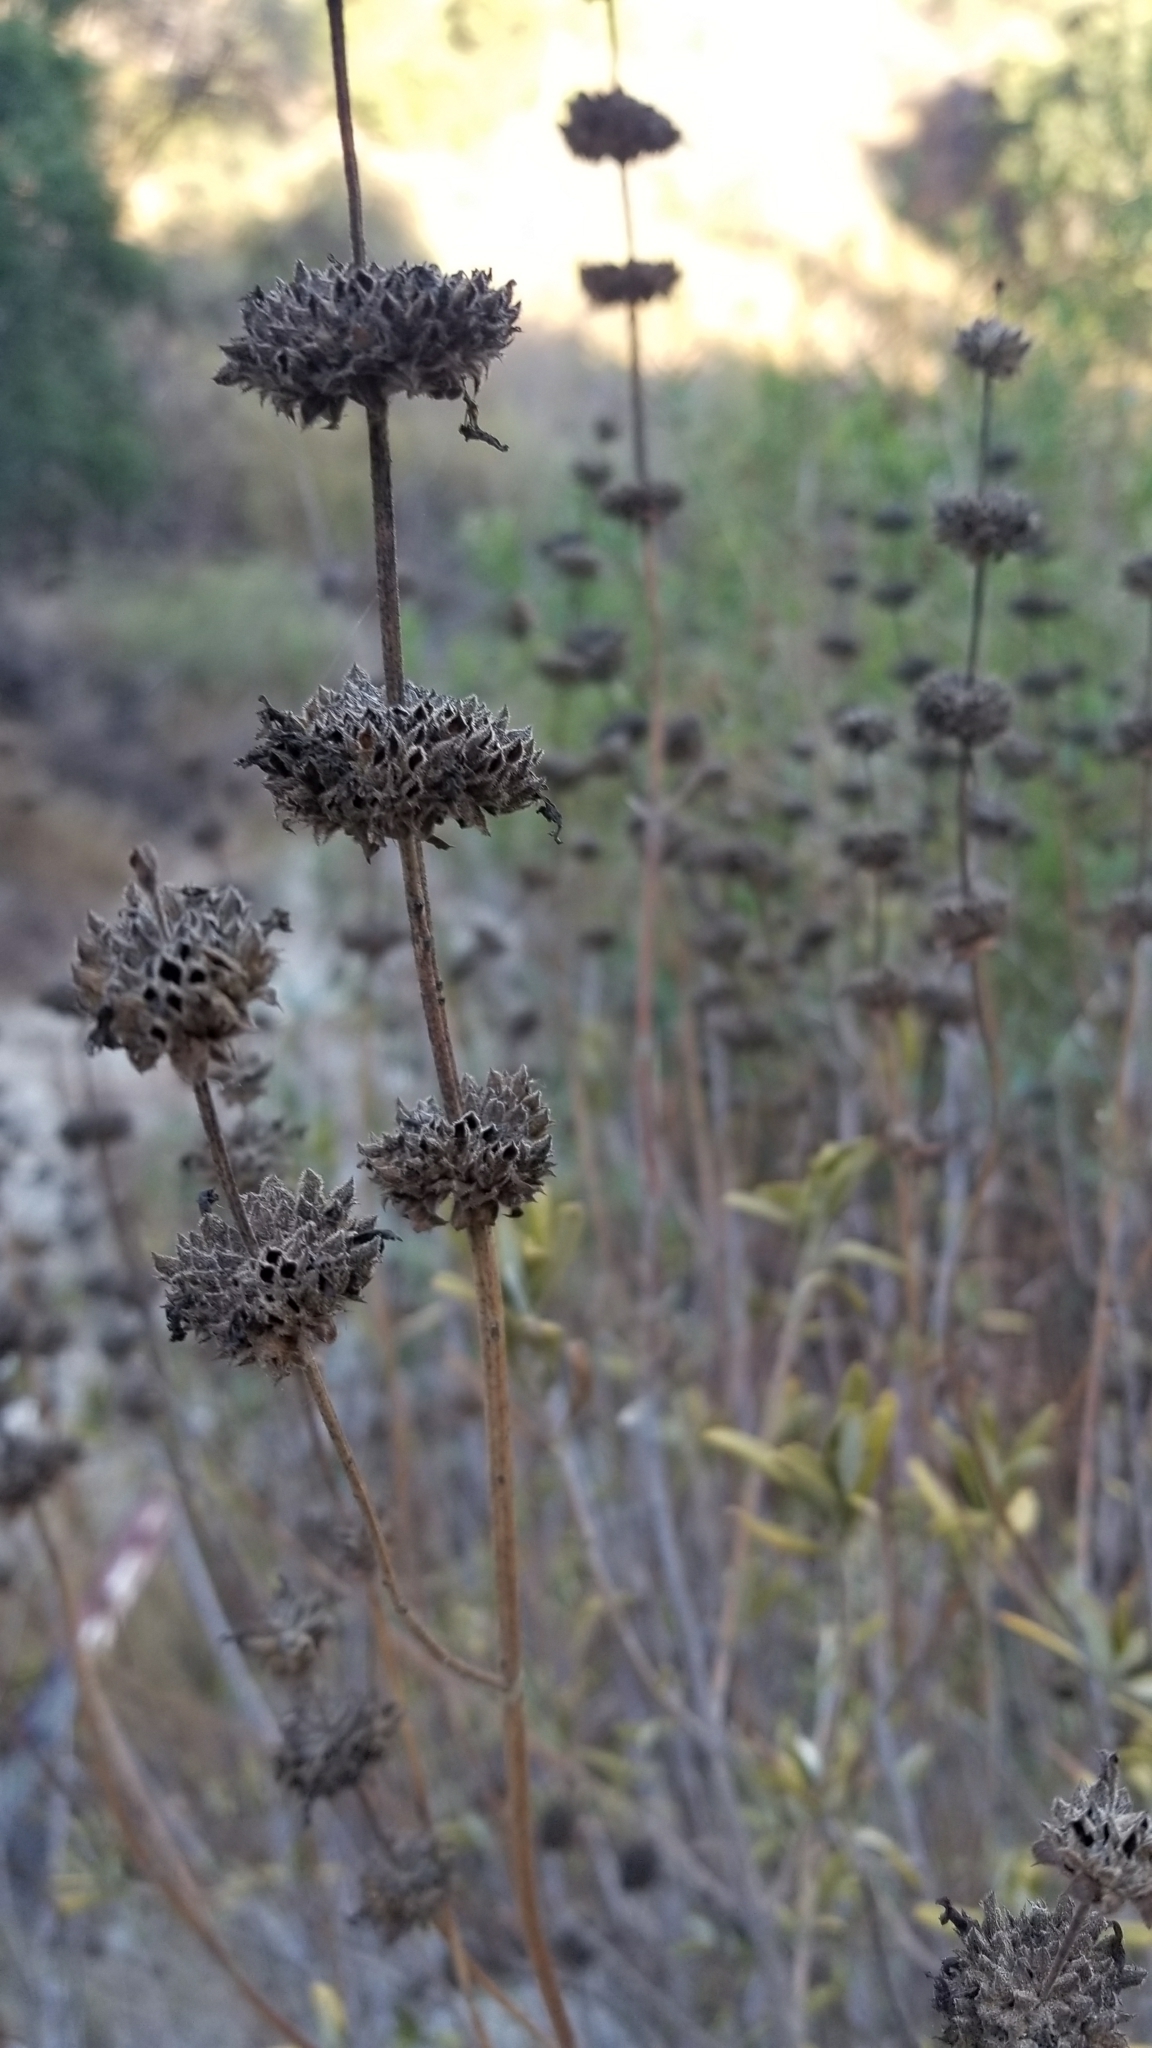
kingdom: Plantae
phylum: Tracheophyta
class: Magnoliopsida
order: Lamiales
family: Lamiaceae
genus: Salvia
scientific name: Salvia mellifera
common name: Black sage
